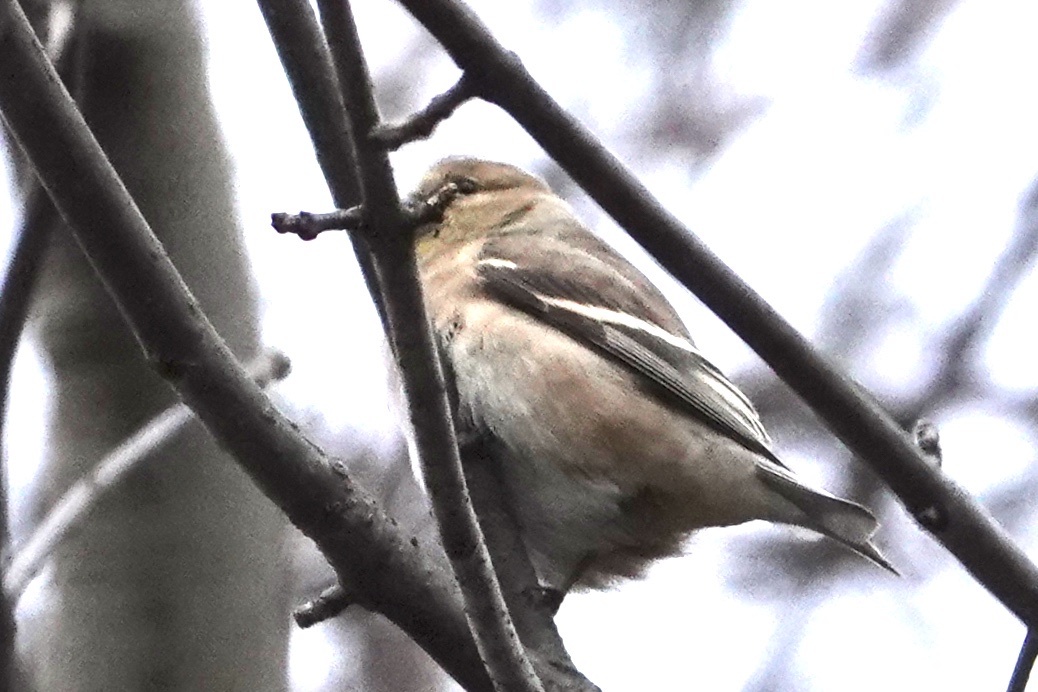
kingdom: Animalia
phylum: Chordata
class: Aves
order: Passeriformes
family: Fringillidae
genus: Spinus
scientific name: Spinus tristis
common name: American goldfinch
